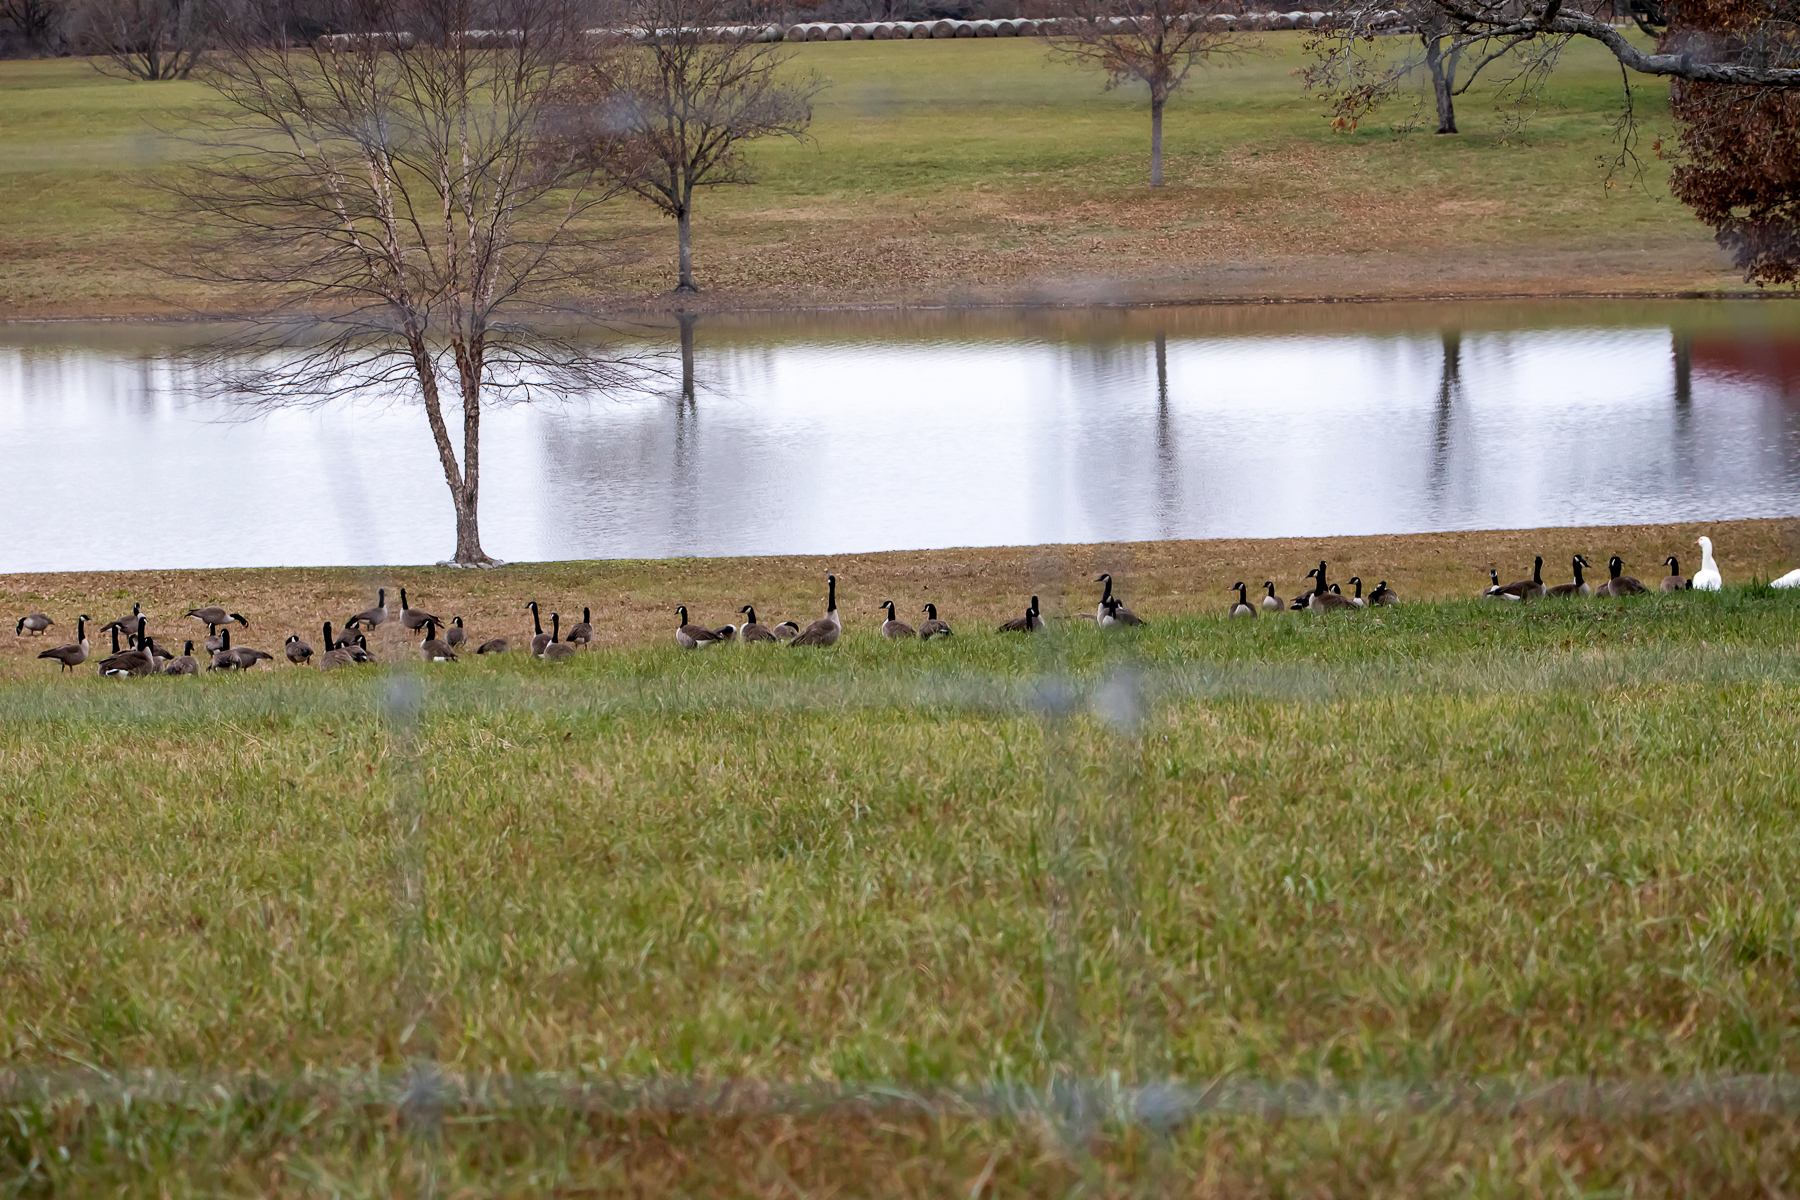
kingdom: Animalia
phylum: Chordata
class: Aves
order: Anseriformes
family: Anatidae
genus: Branta
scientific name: Branta canadensis
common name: Canada goose
